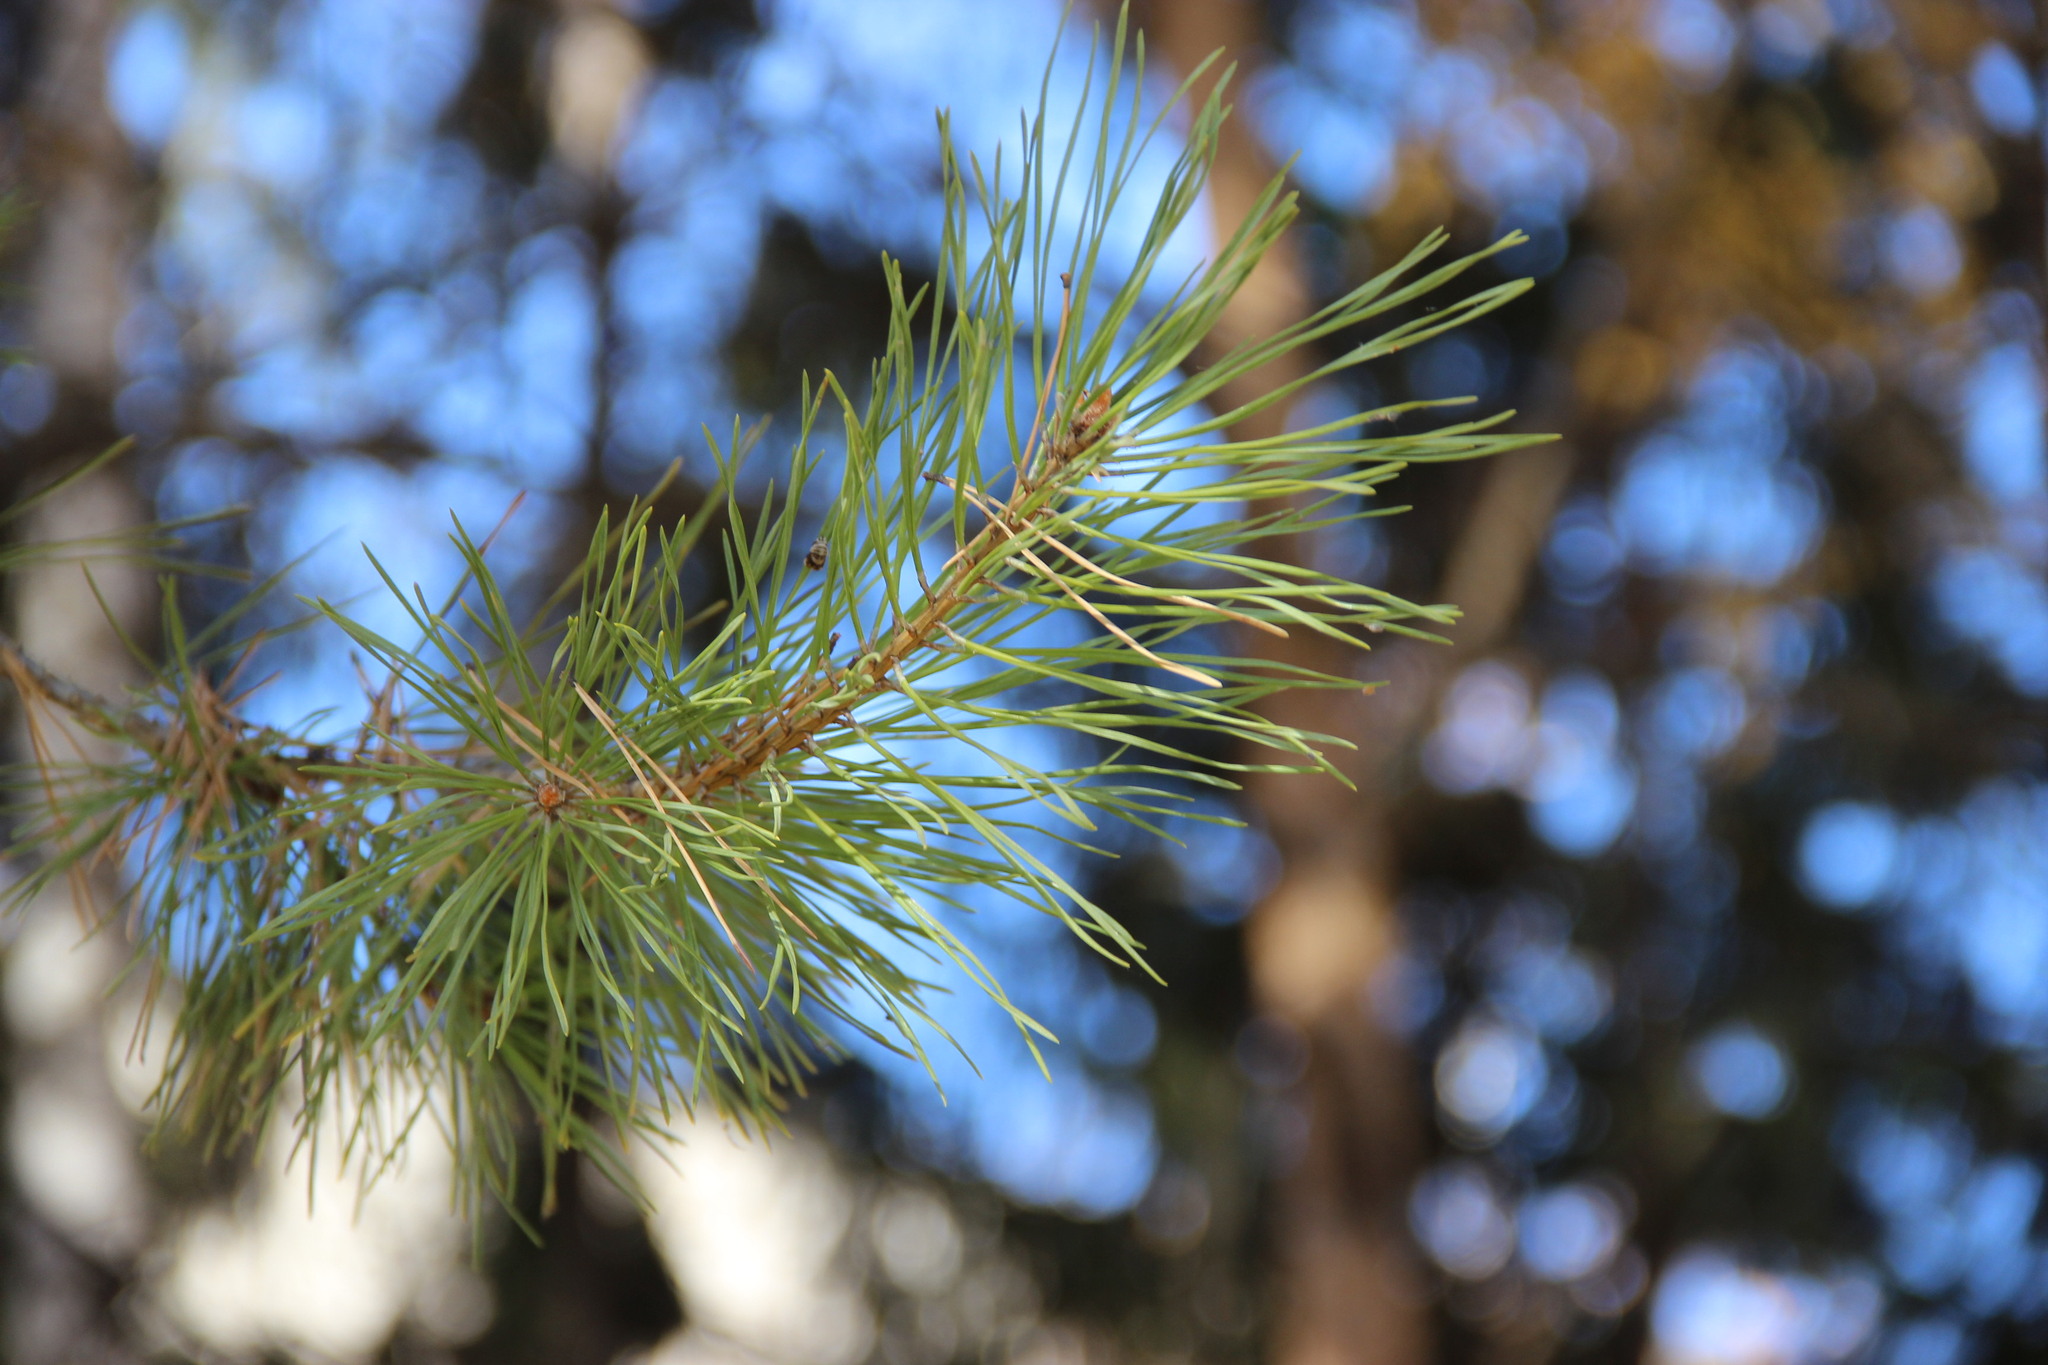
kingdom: Plantae
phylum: Tracheophyta
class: Pinopsida
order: Pinales
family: Pinaceae
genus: Pinus
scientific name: Pinus sylvestris
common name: Scots pine
